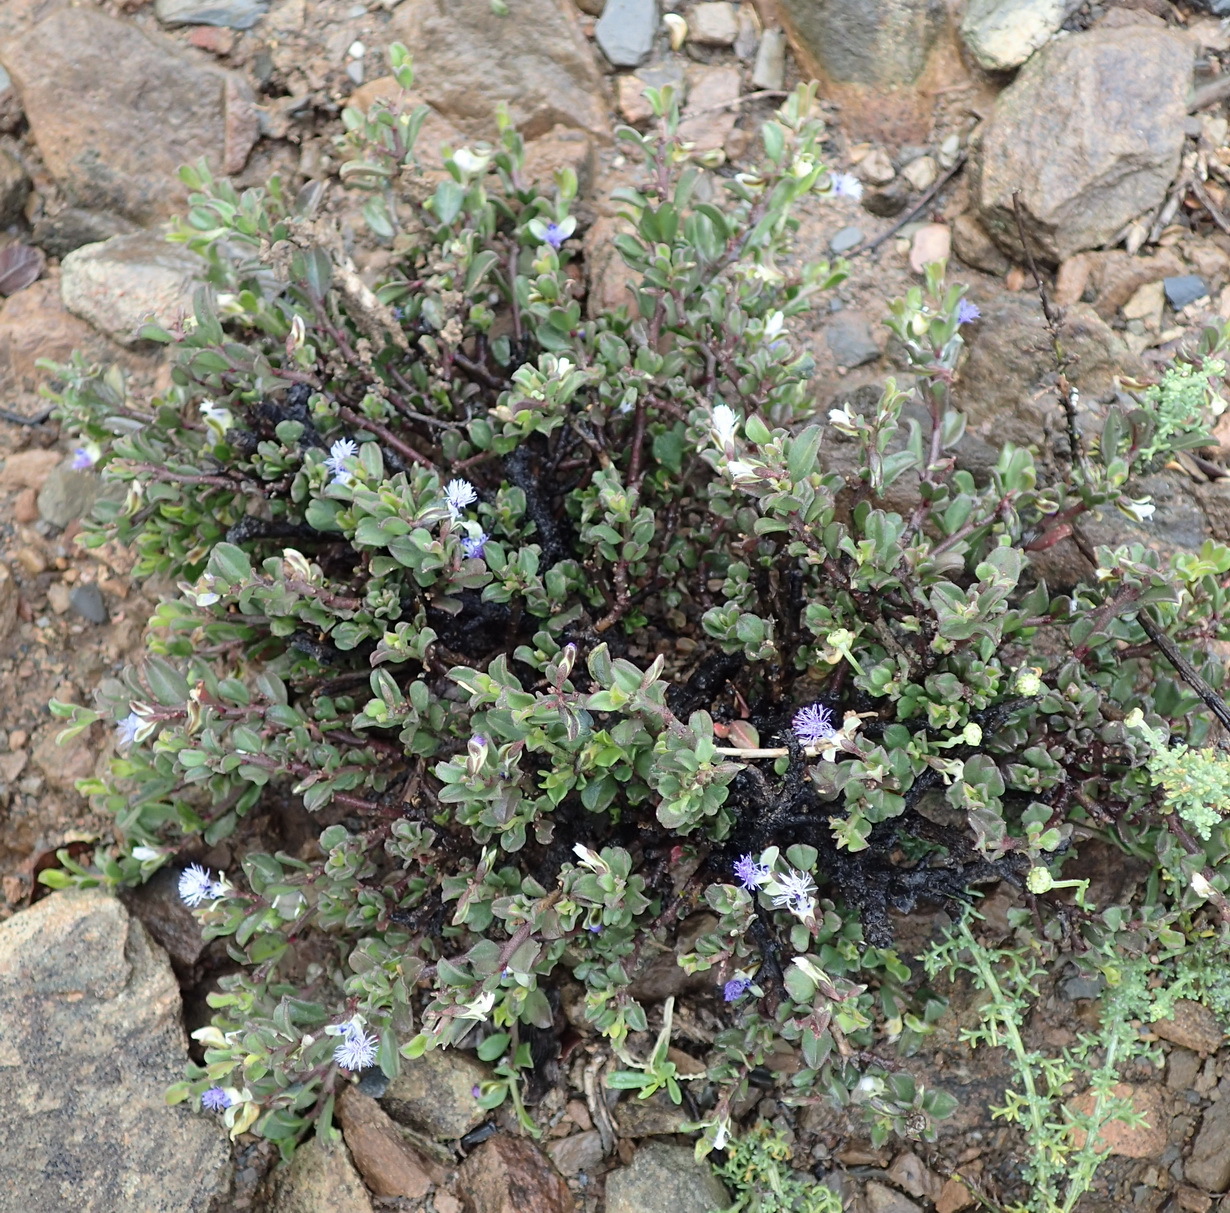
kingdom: Plantae
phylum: Tracheophyta
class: Magnoliopsida
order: Fabales
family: Polygalaceae
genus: Polygala
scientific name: Polygala asbestina
